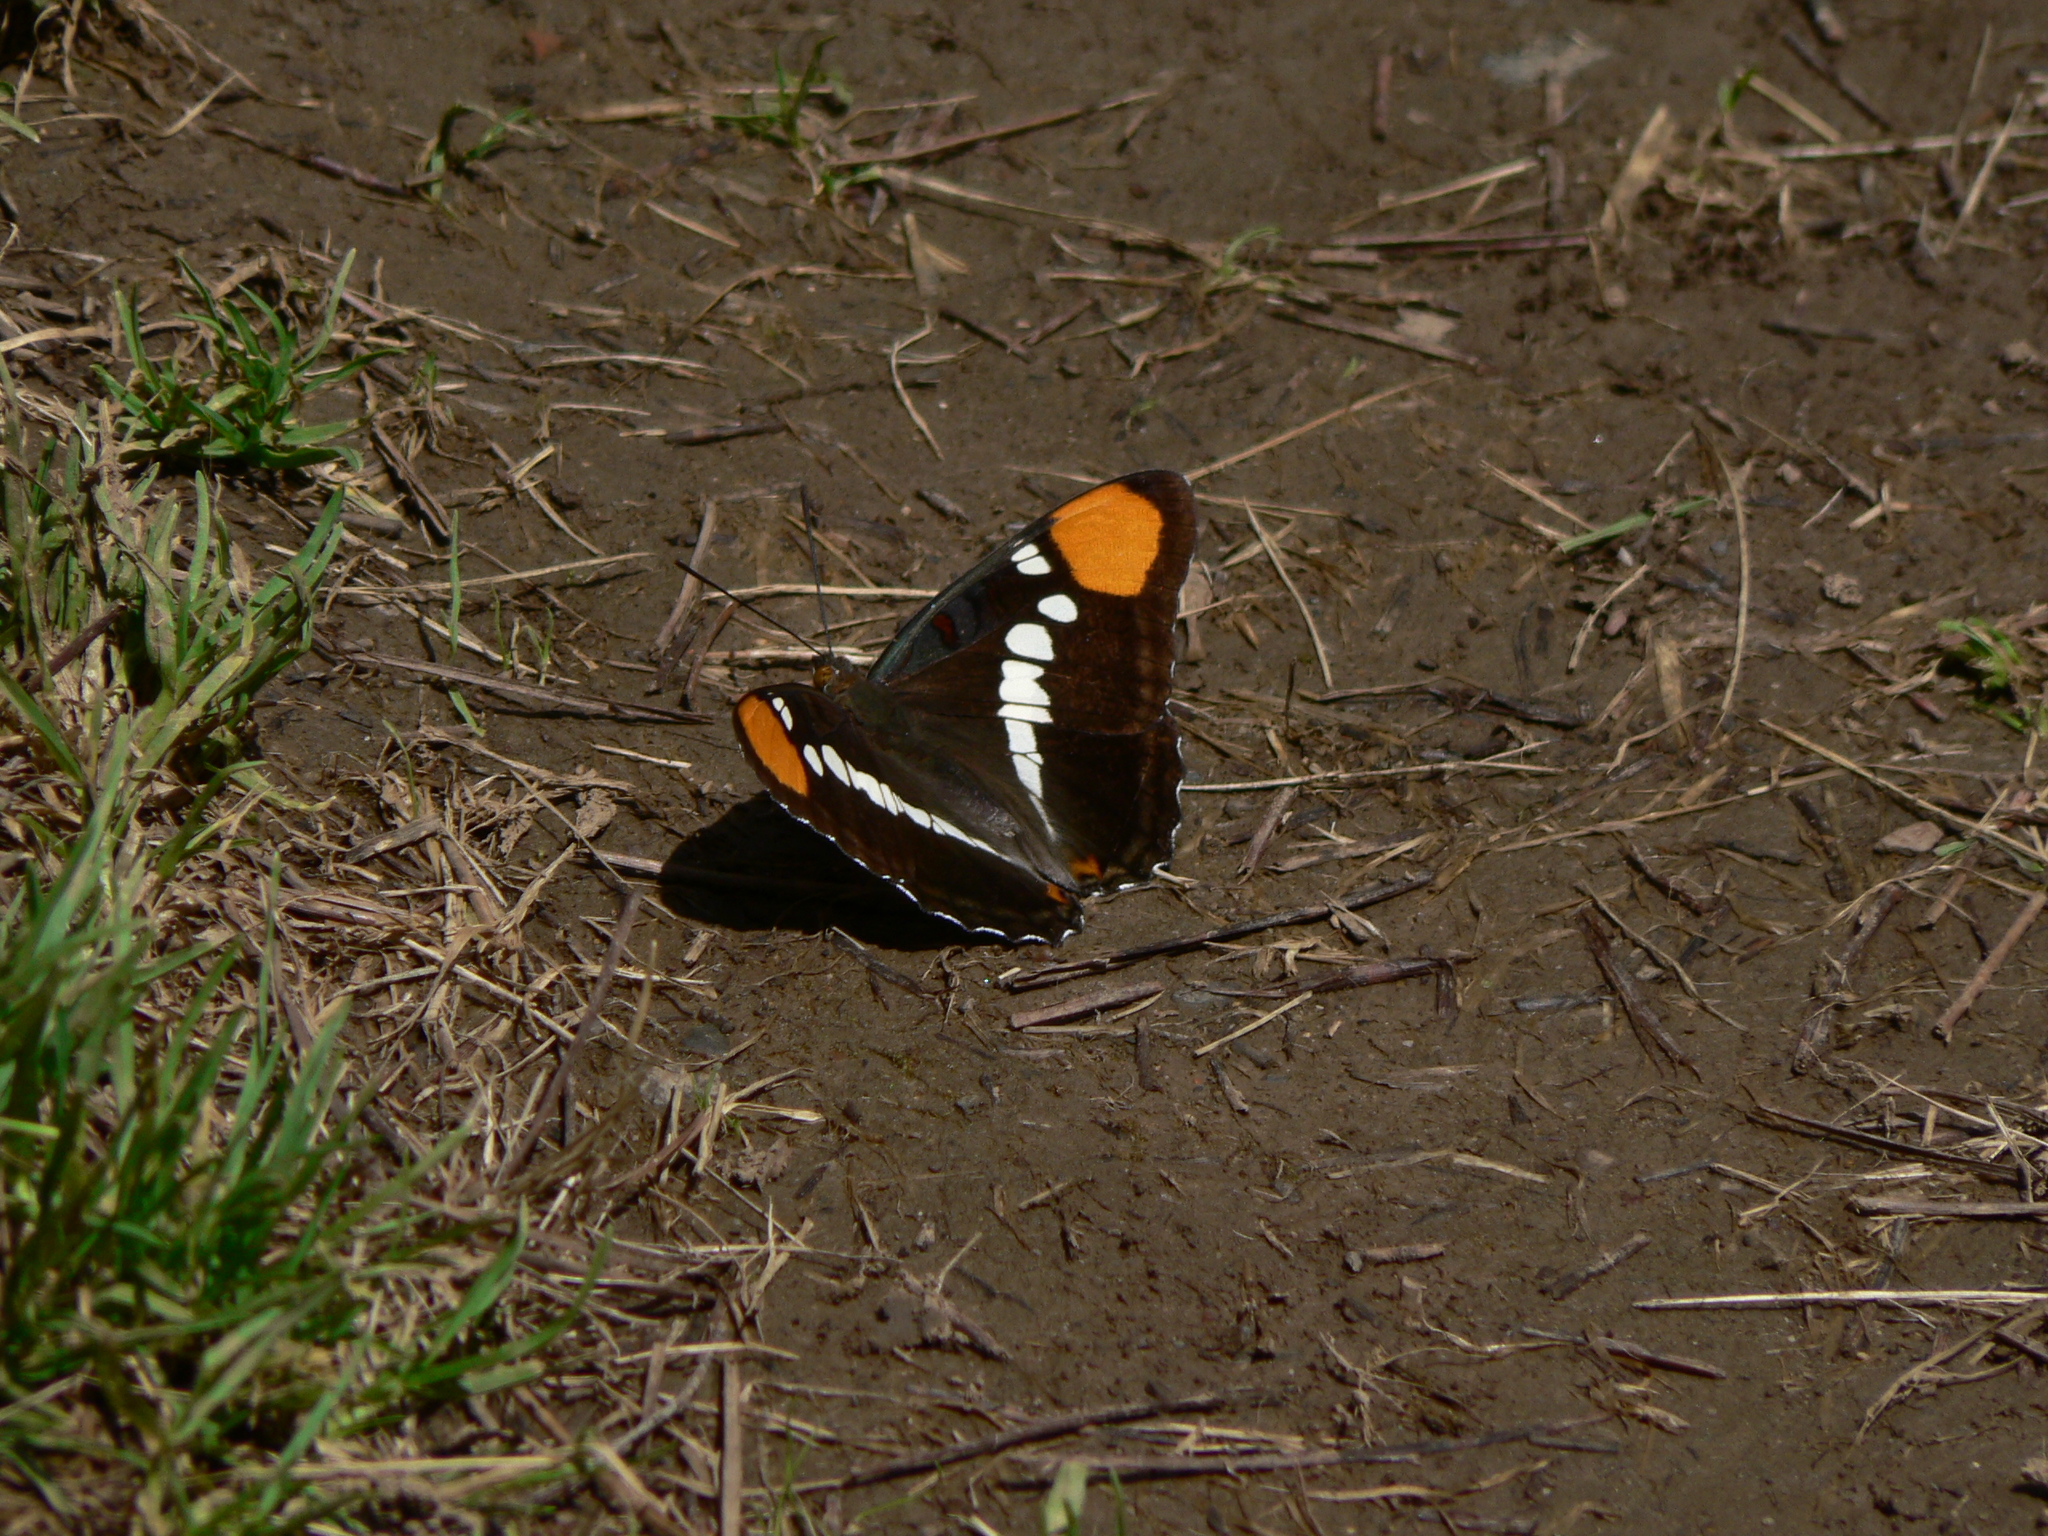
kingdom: Animalia
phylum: Arthropoda
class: Insecta
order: Lepidoptera
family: Nymphalidae
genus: Limenitis
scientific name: Limenitis bredowii
